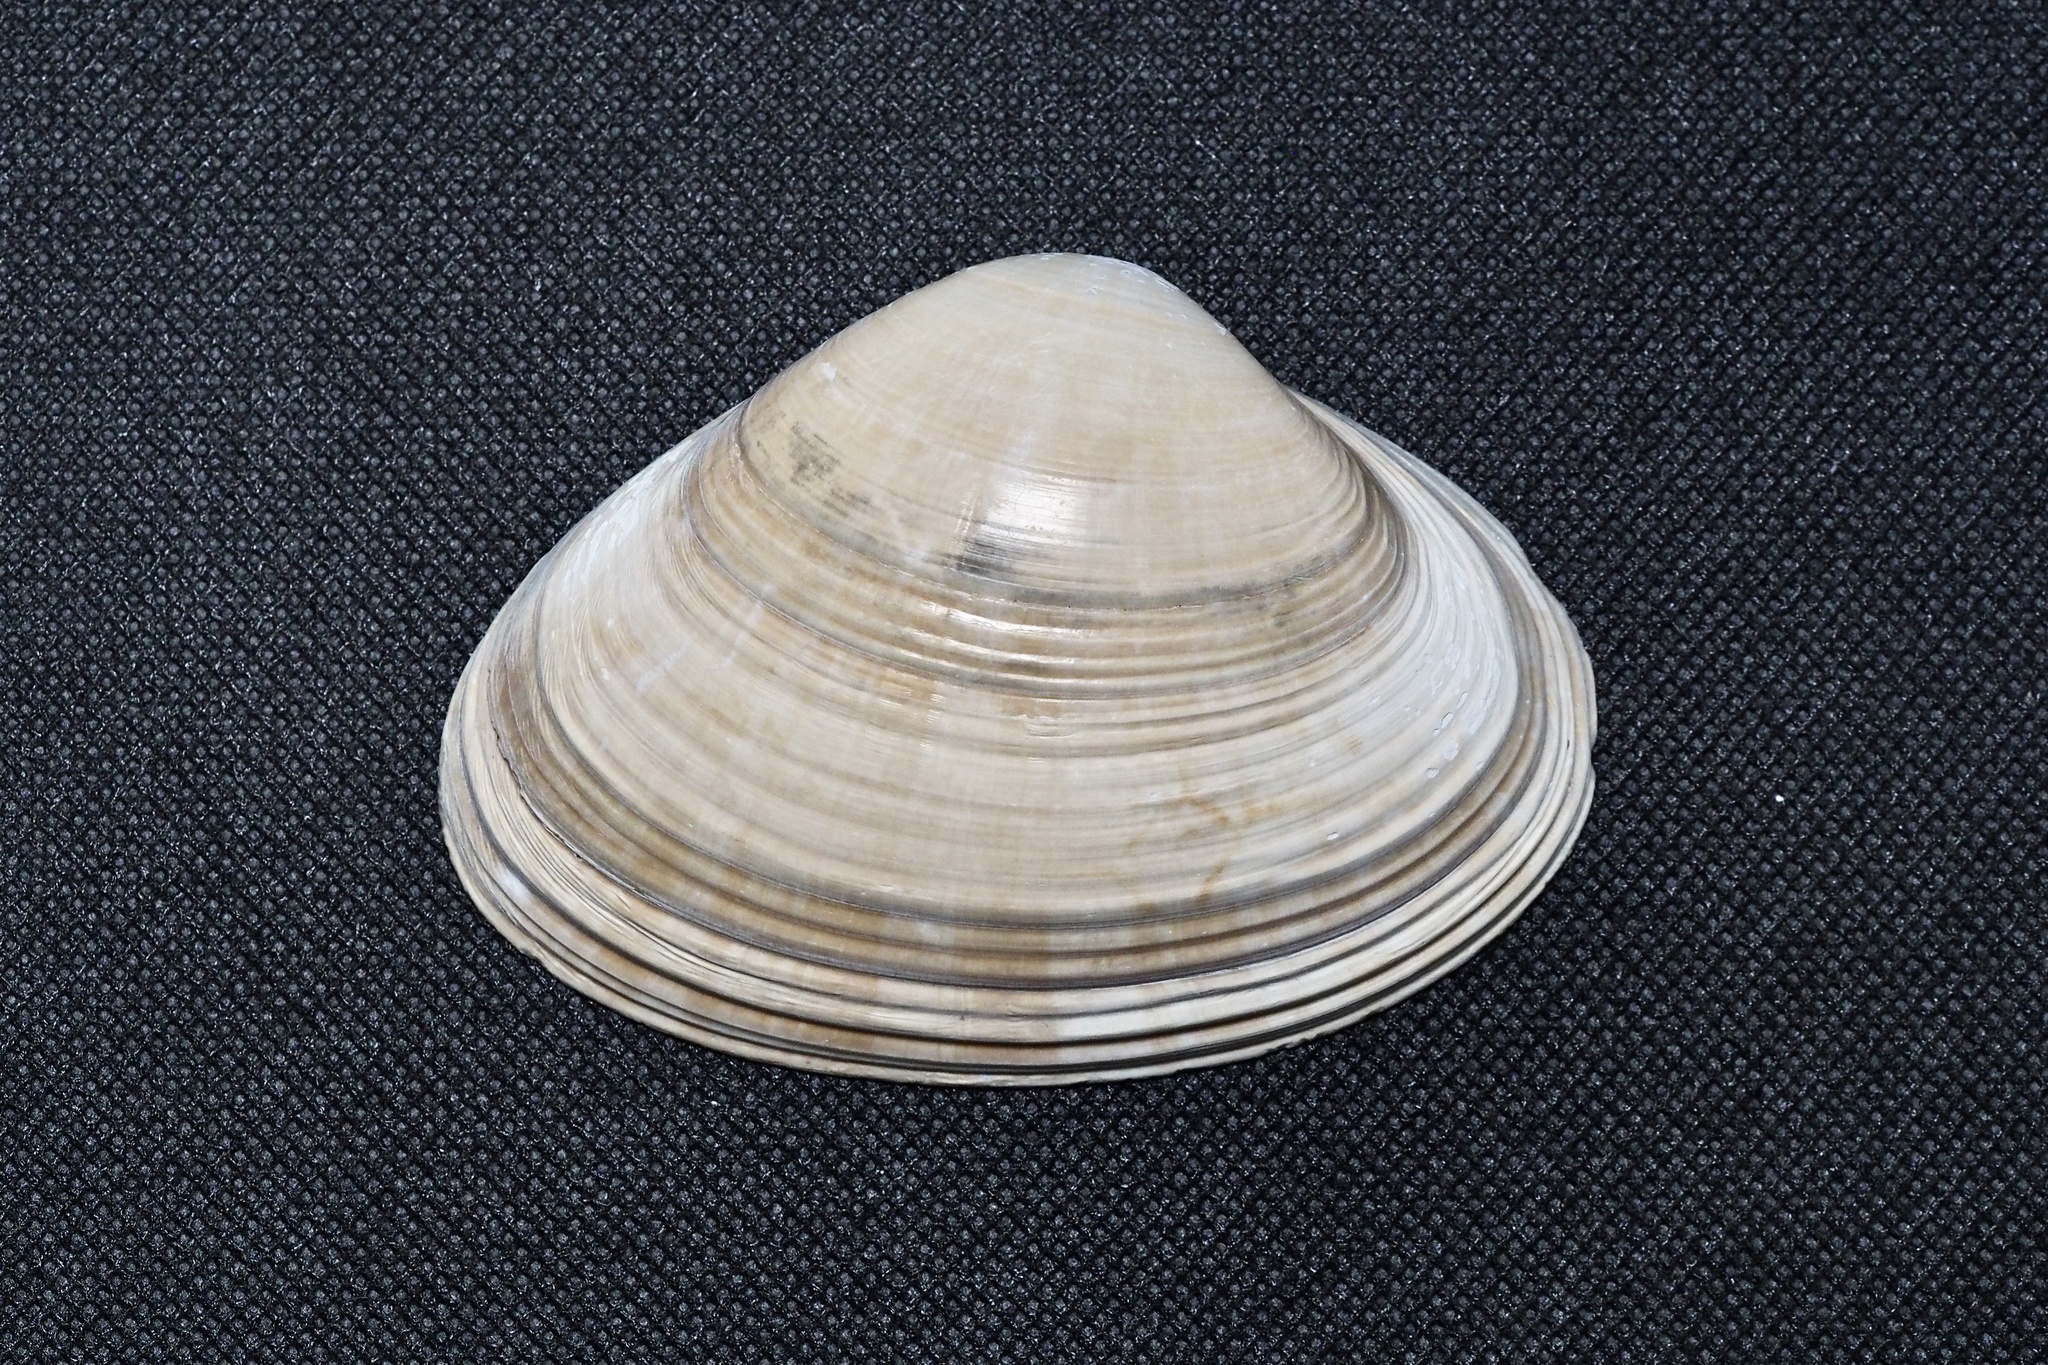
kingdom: Animalia
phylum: Mollusca
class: Bivalvia
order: Venerida
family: Mactridae
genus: Mactra
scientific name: Mactra chinensis
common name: Chinese surf clam
